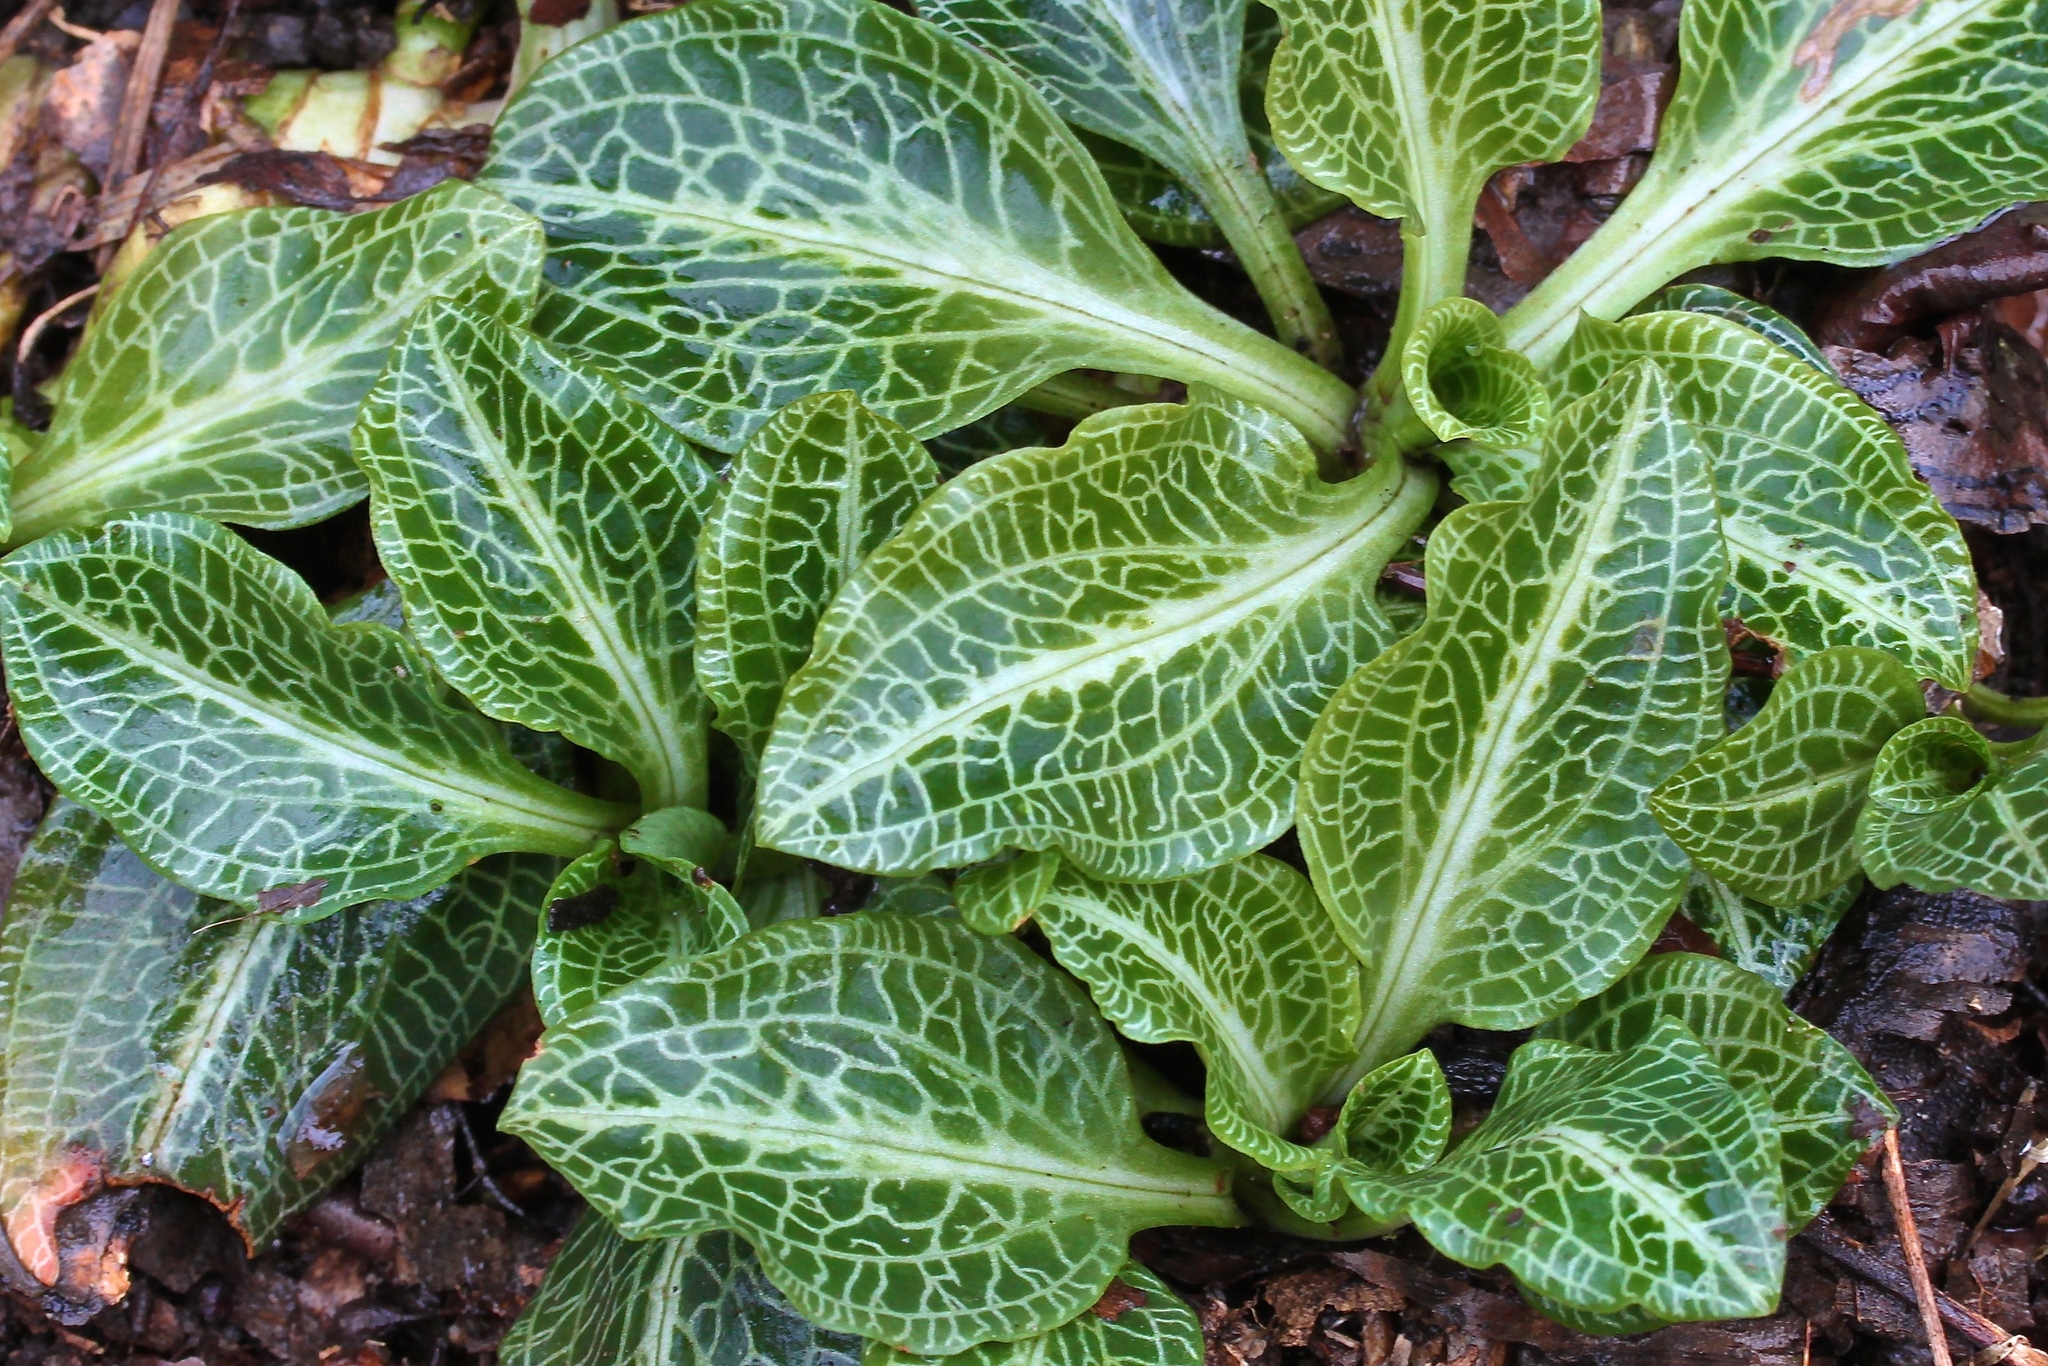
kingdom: Plantae
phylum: Tracheophyta
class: Liliopsida
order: Asparagales
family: Orchidaceae
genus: Goodyera
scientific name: Goodyera pubescens
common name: Downy rattlesnake-plantain
